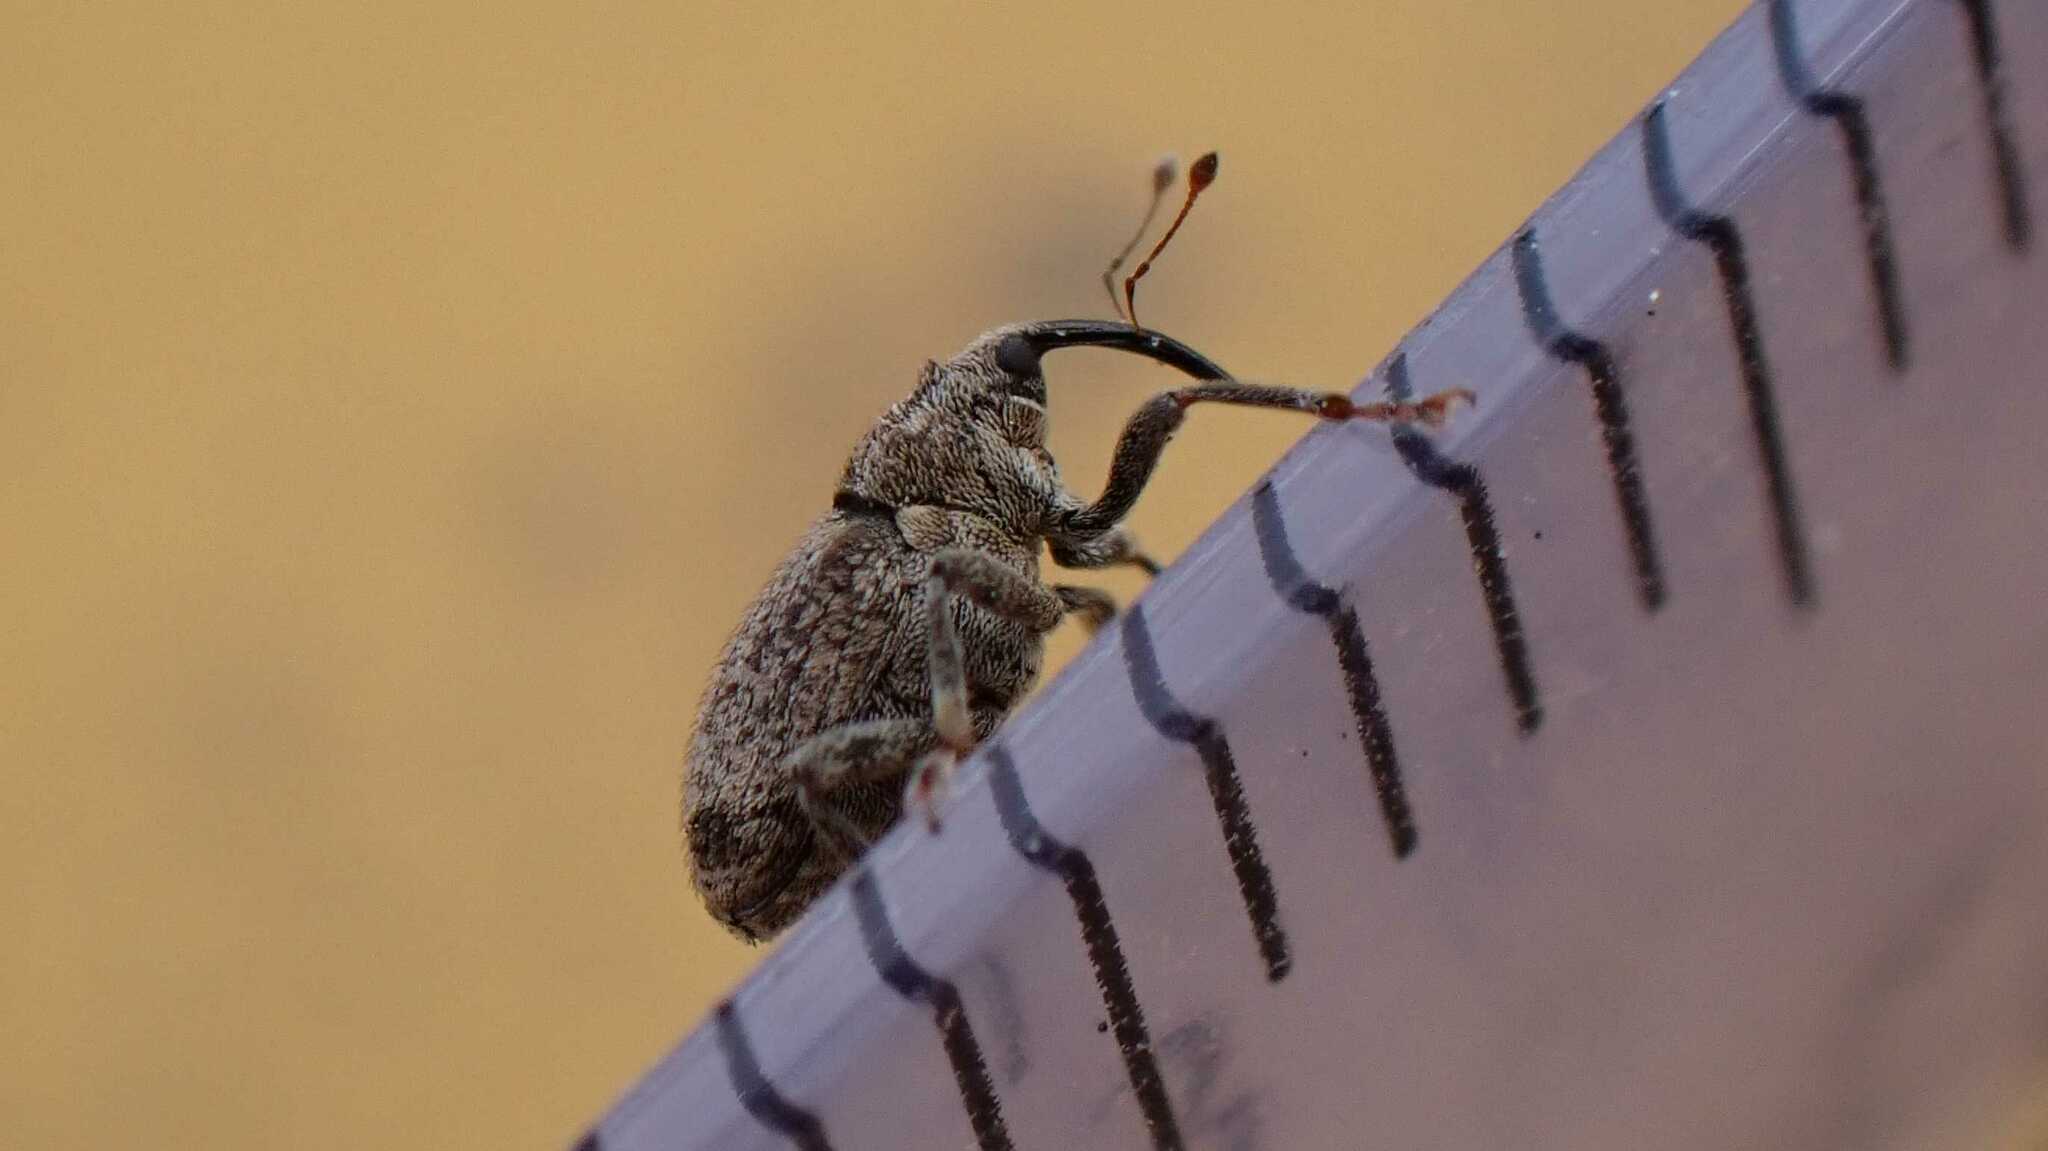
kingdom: Animalia
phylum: Arthropoda
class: Insecta
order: Coleoptera
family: Curculionidae
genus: Ceutorhynchus
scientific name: Ceutorhynchus pallidactylus
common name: Cabbage stem weavil
